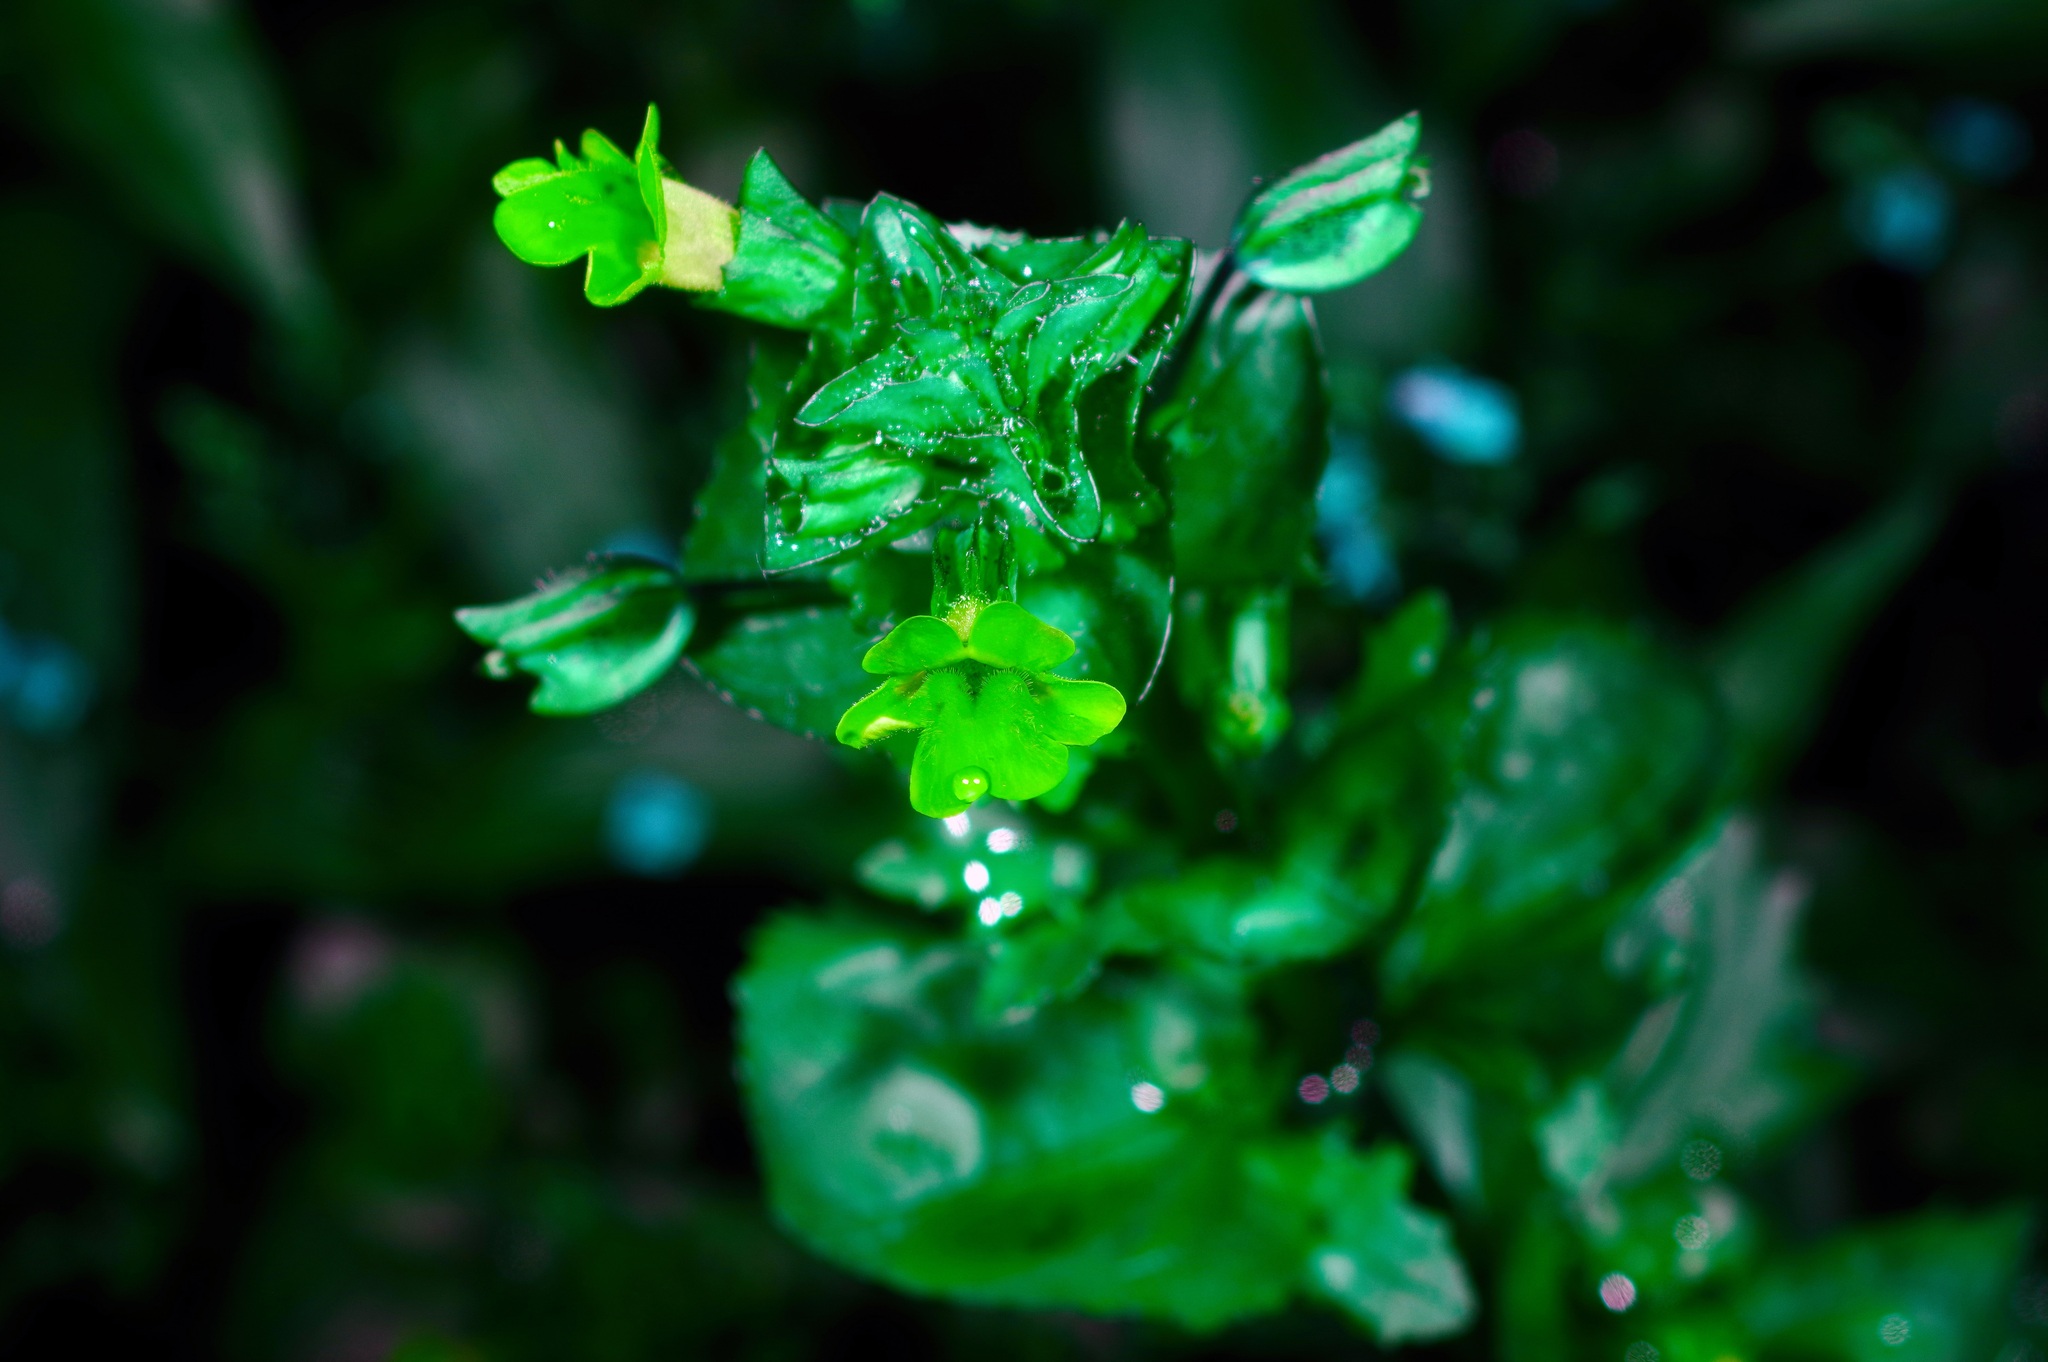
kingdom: Plantae
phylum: Tracheophyta
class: Magnoliopsida
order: Lamiales
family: Phrymaceae
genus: Erythranthe
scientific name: Erythranthe inamoena
